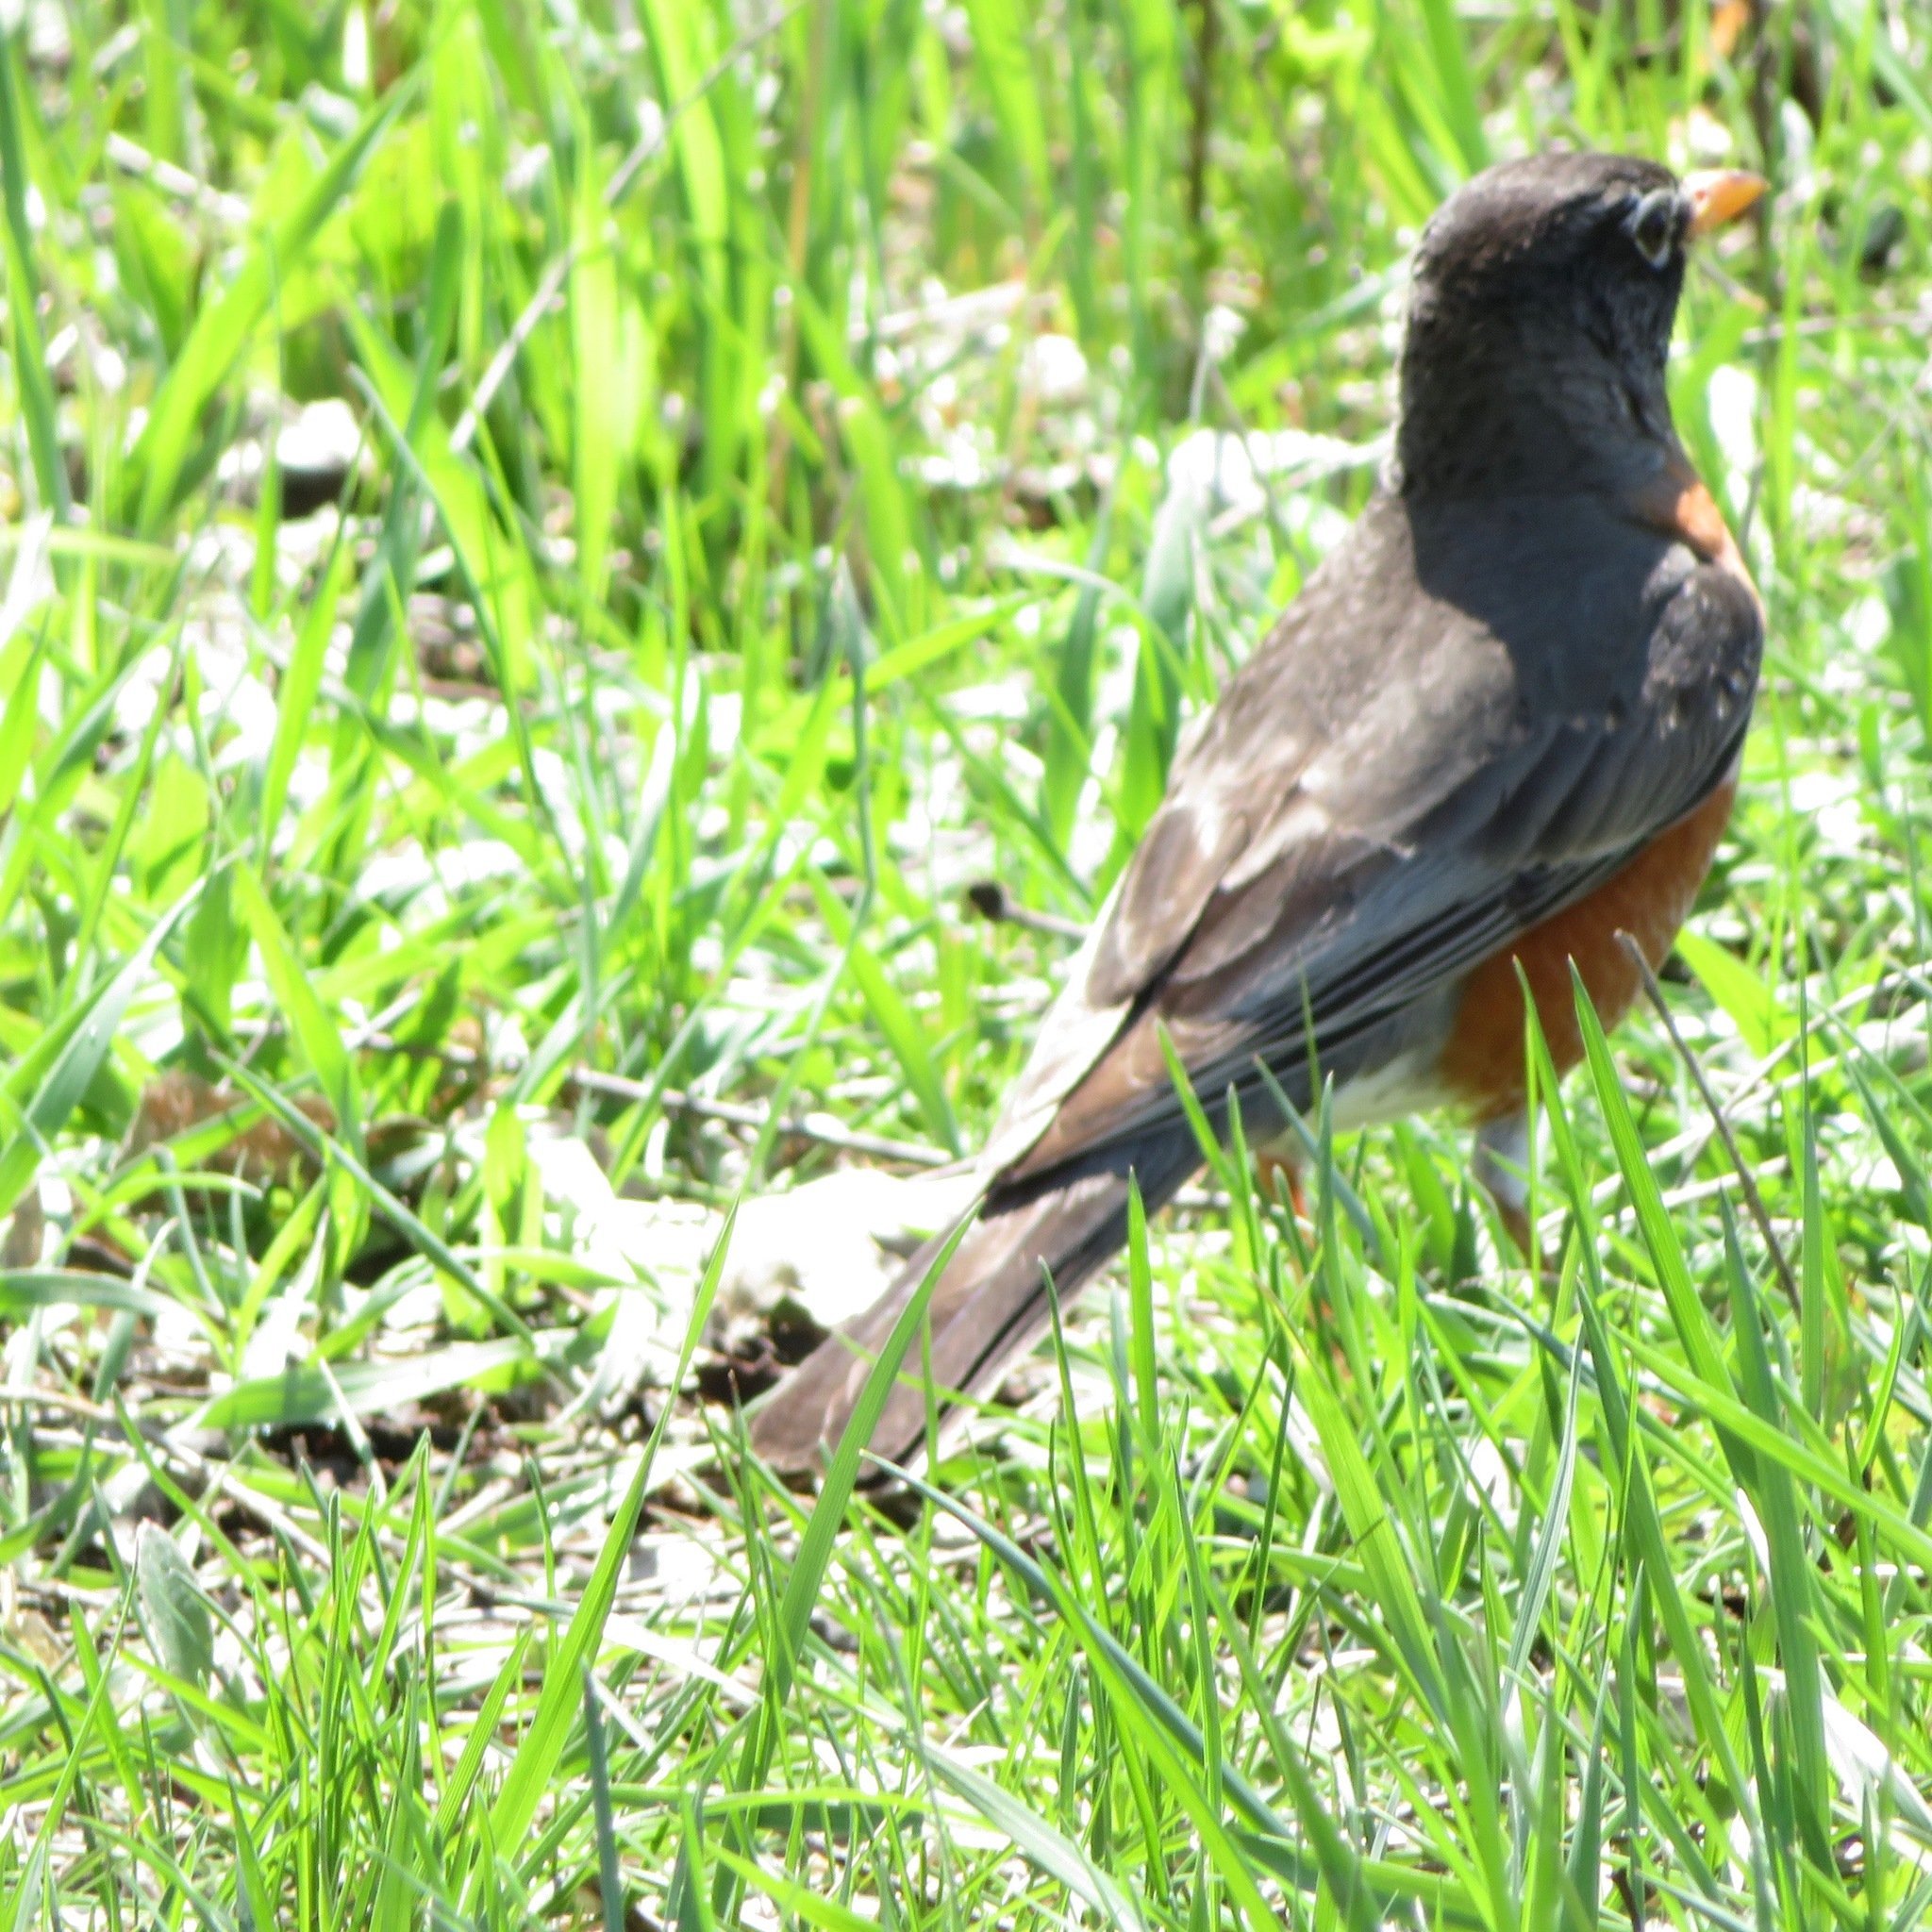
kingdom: Animalia
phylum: Chordata
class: Aves
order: Passeriformes
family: Turdidae
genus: Turdus
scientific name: Turdus migratorius
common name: American robin
